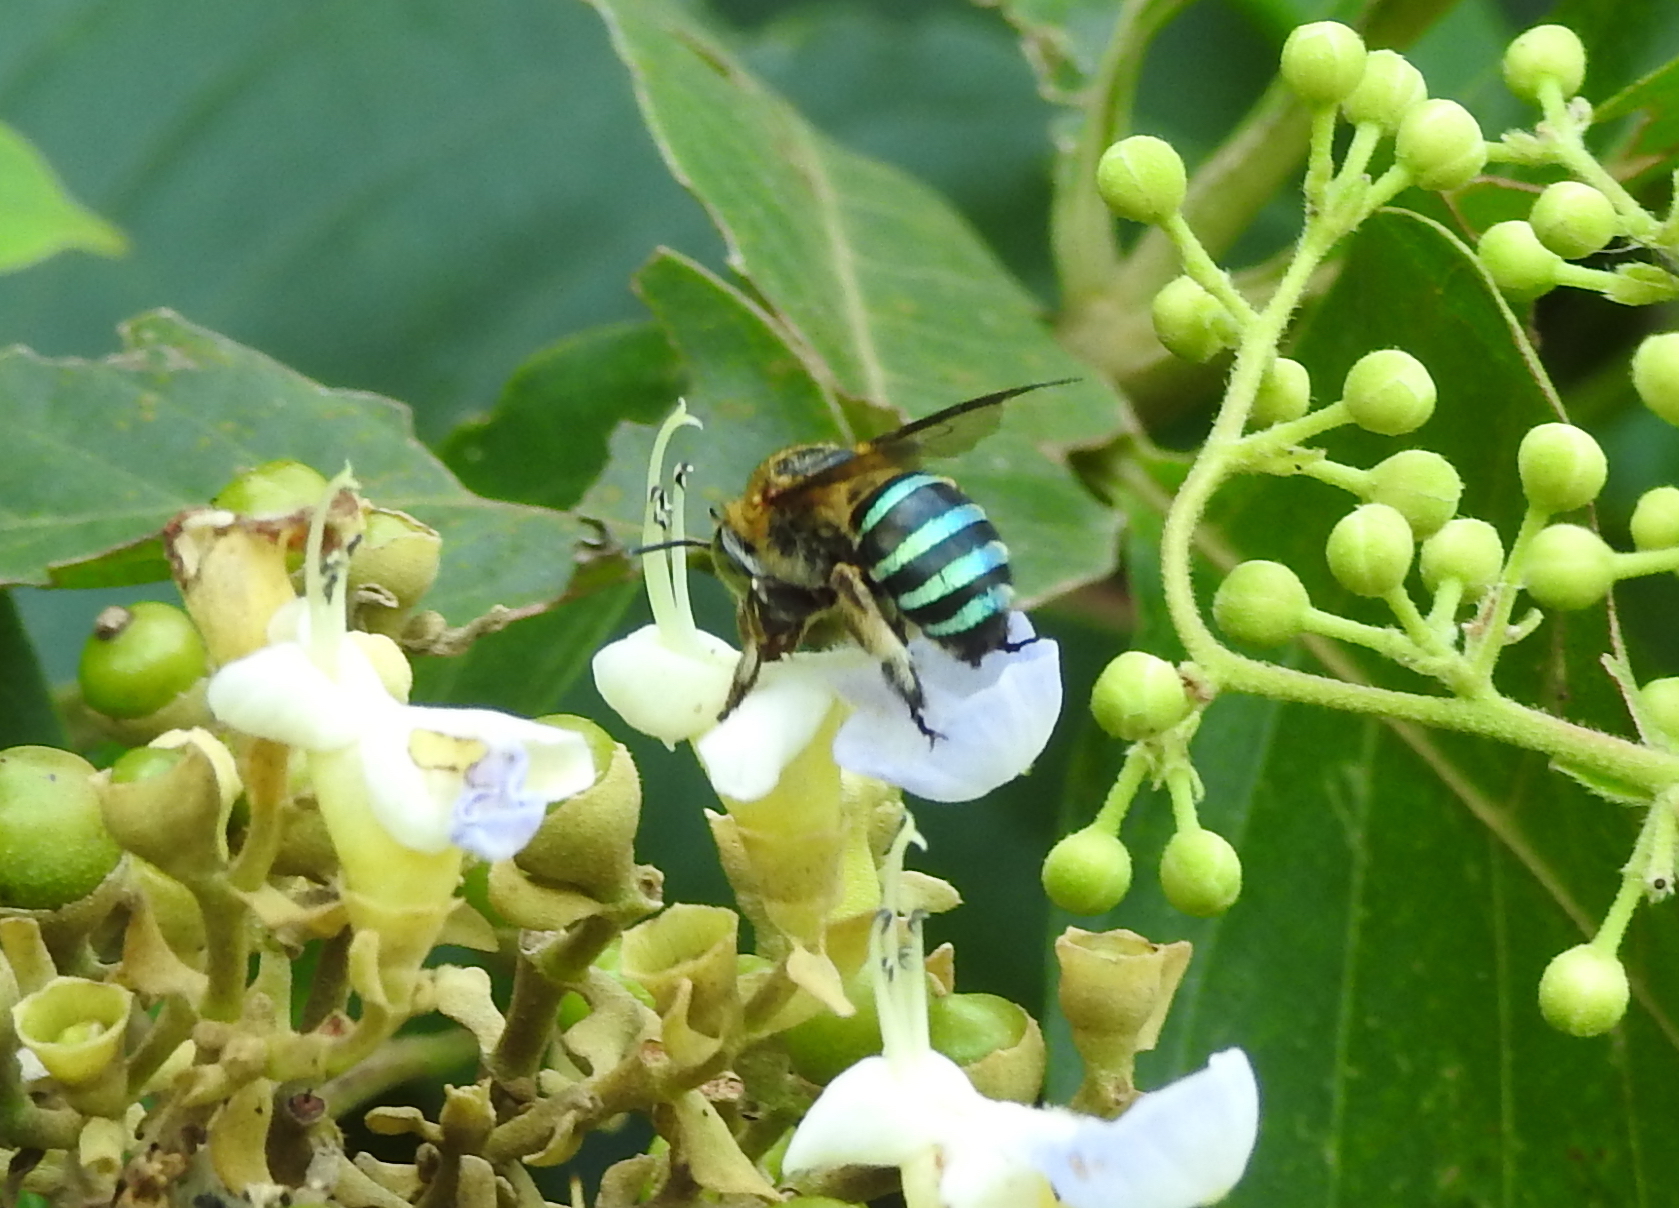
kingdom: Animalia
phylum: Arthropoda
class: Insecta
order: Hymenoptera
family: Apidae
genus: Amegilla
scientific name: Amegilla andrewsi
